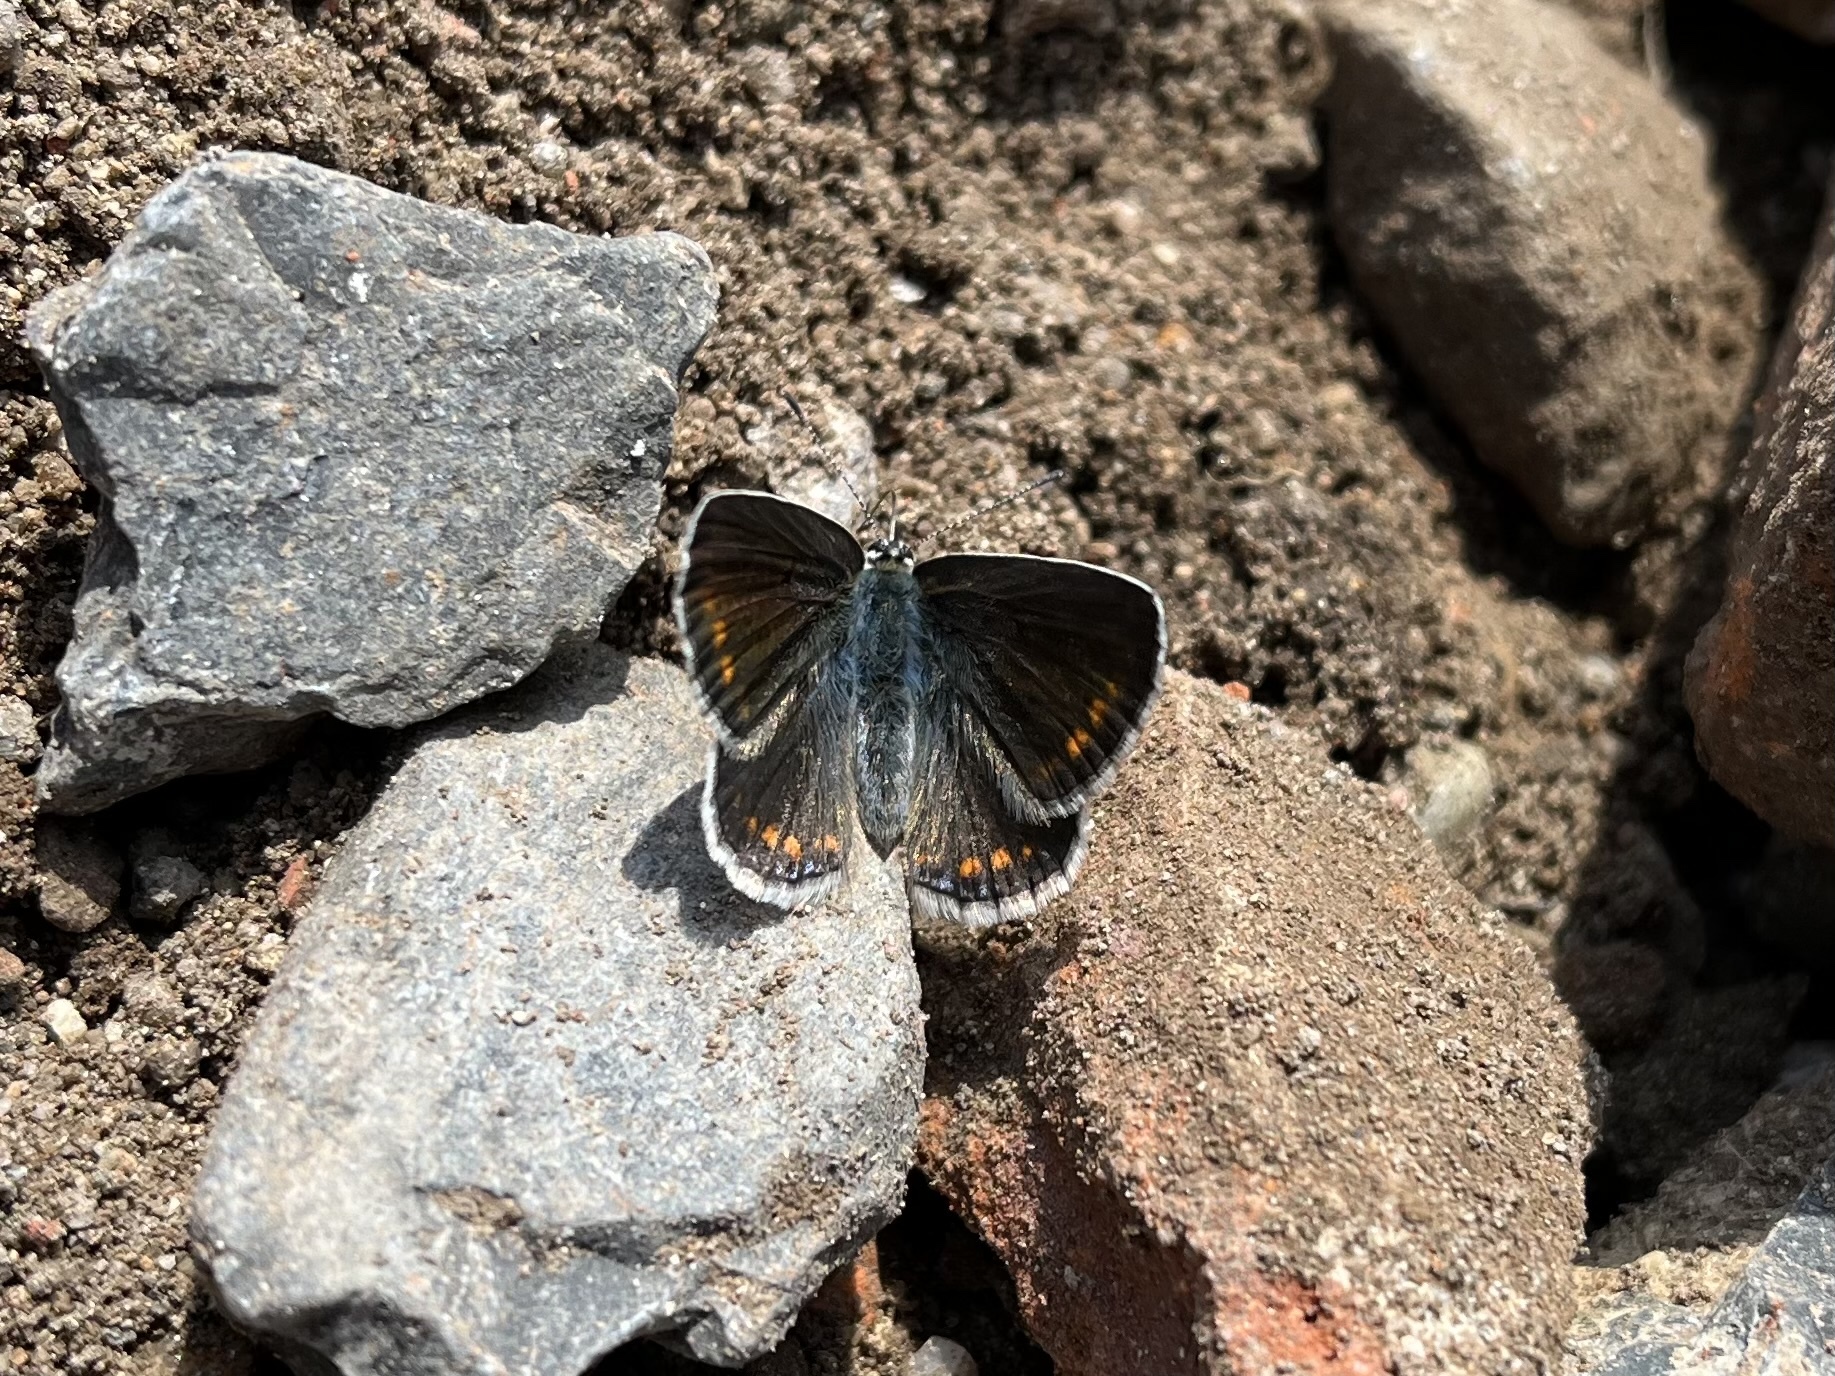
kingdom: Animalia
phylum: Arthropoda
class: Insecta
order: Lepidoptera
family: Lycaenidae
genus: Polyommatus
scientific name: Polyommatus icarus
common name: Common blue
